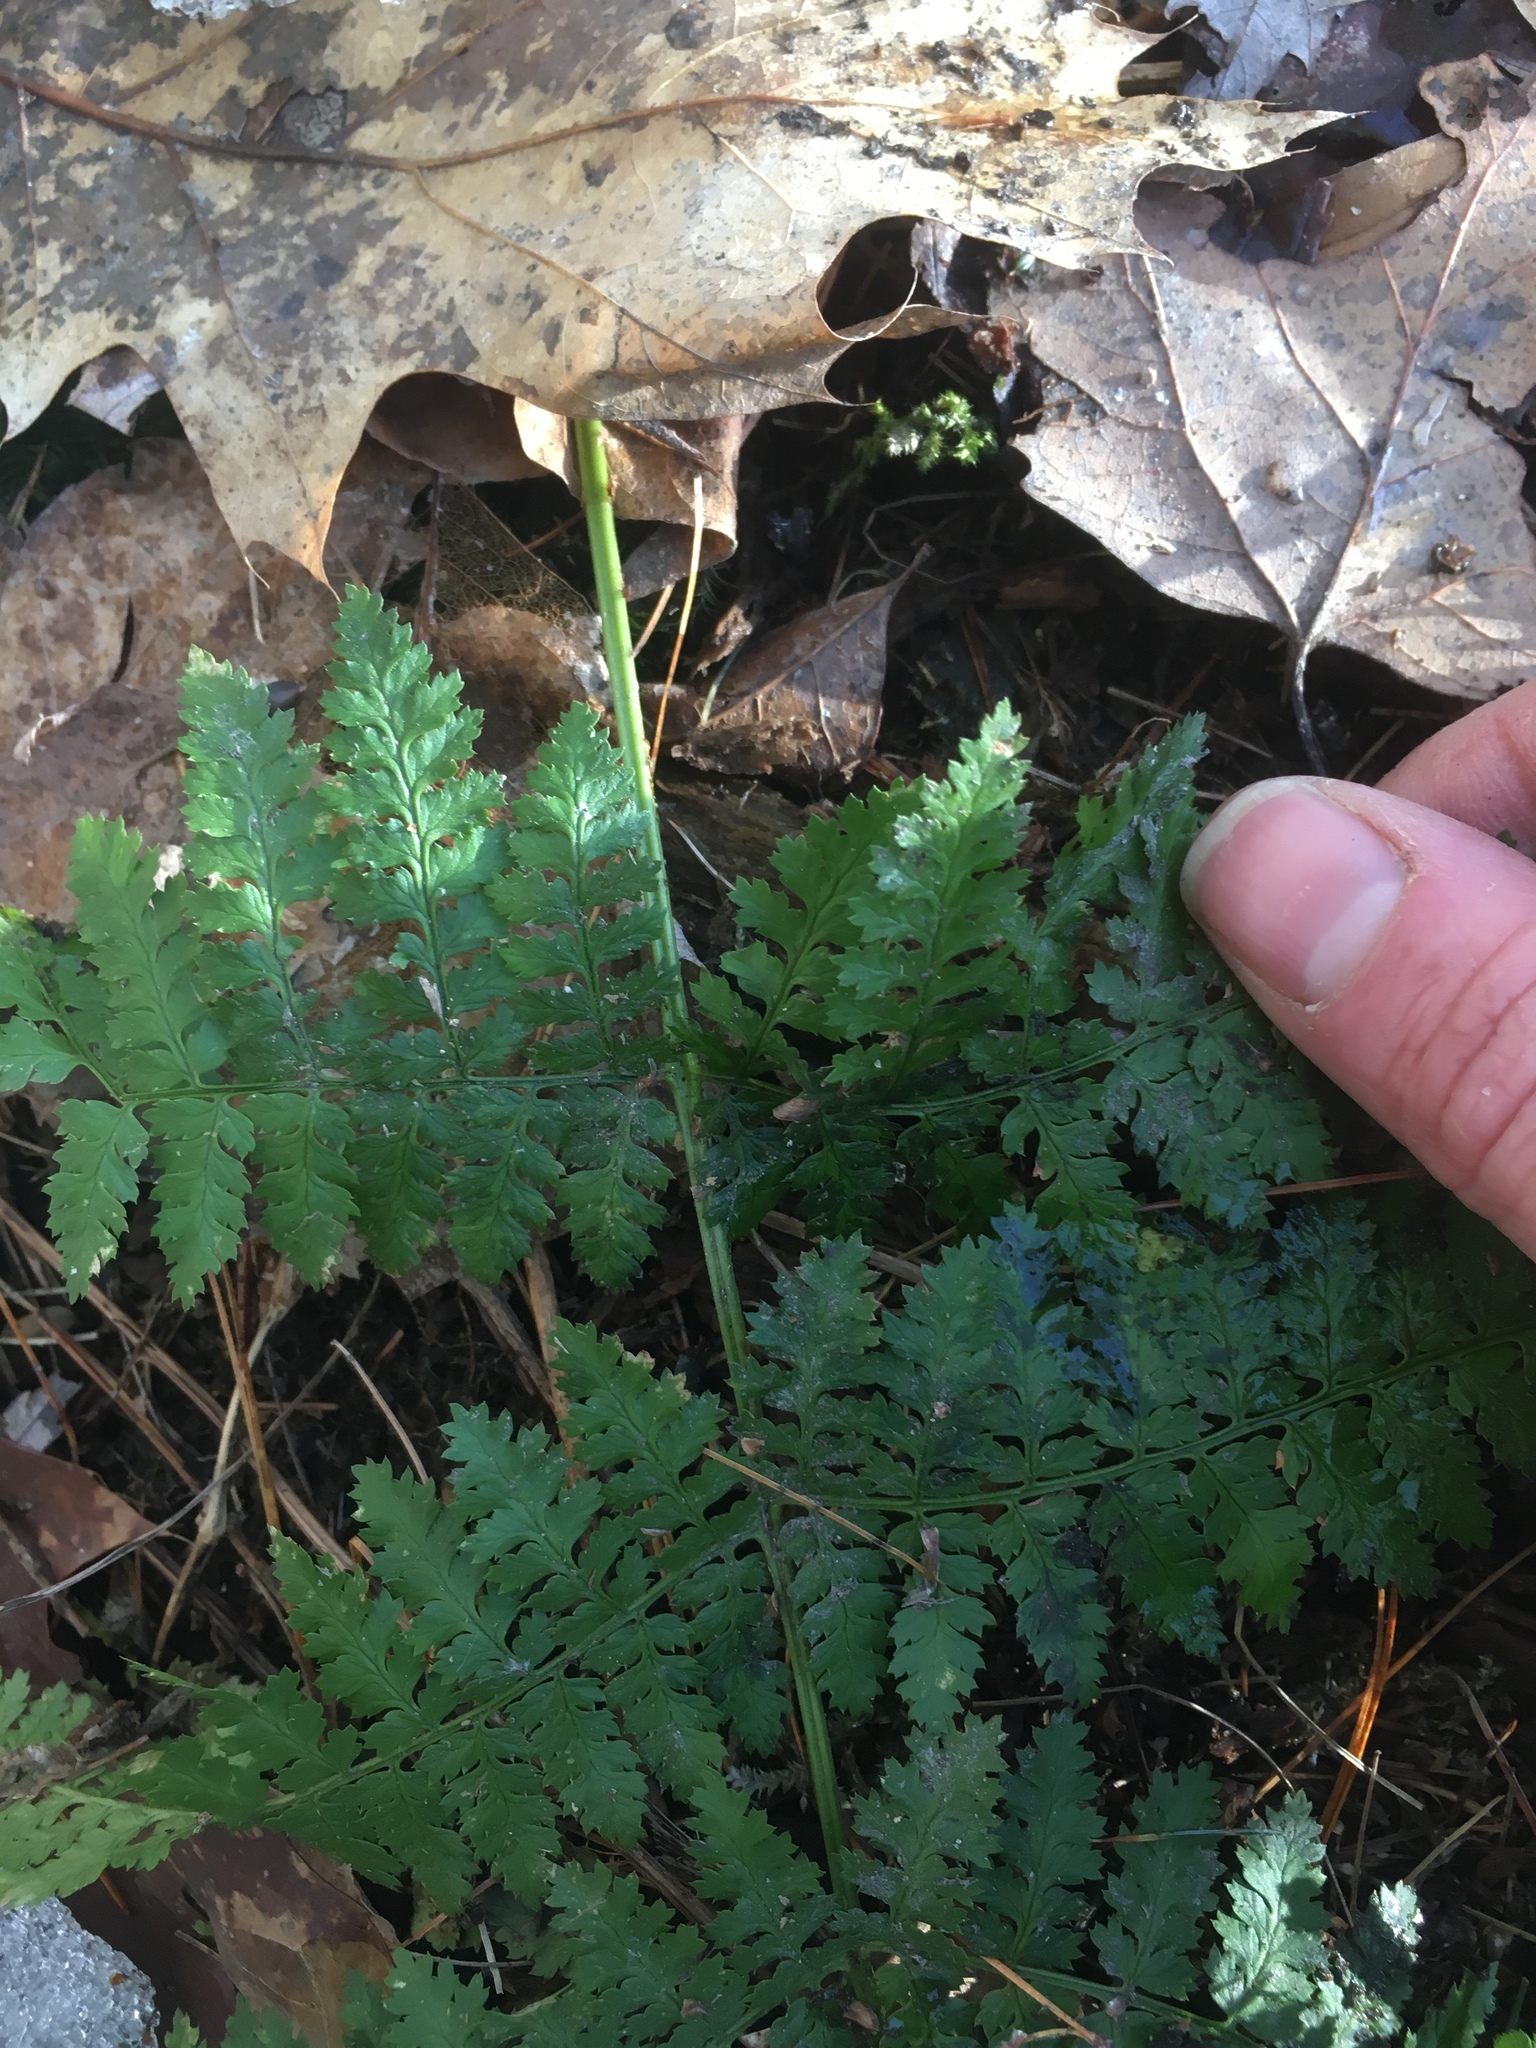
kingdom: Plantae
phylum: Tracheophyta
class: Polypodiopsida
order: Polypodiales
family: Dryopteridaceae
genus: Dryopteris
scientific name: Dryopteris intermedia
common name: Evergreen wood fern
